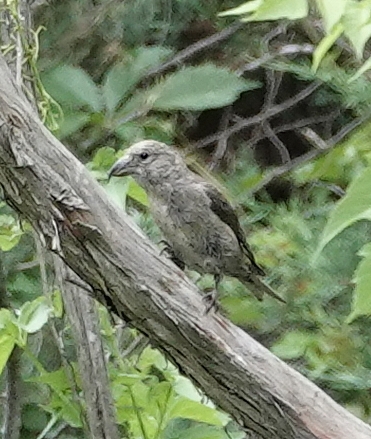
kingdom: Animalia
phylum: Chordata
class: Aves
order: Passeriformes
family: Fringillidae
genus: Loxia
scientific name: Loxia curvirostra
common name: Red crossbill
